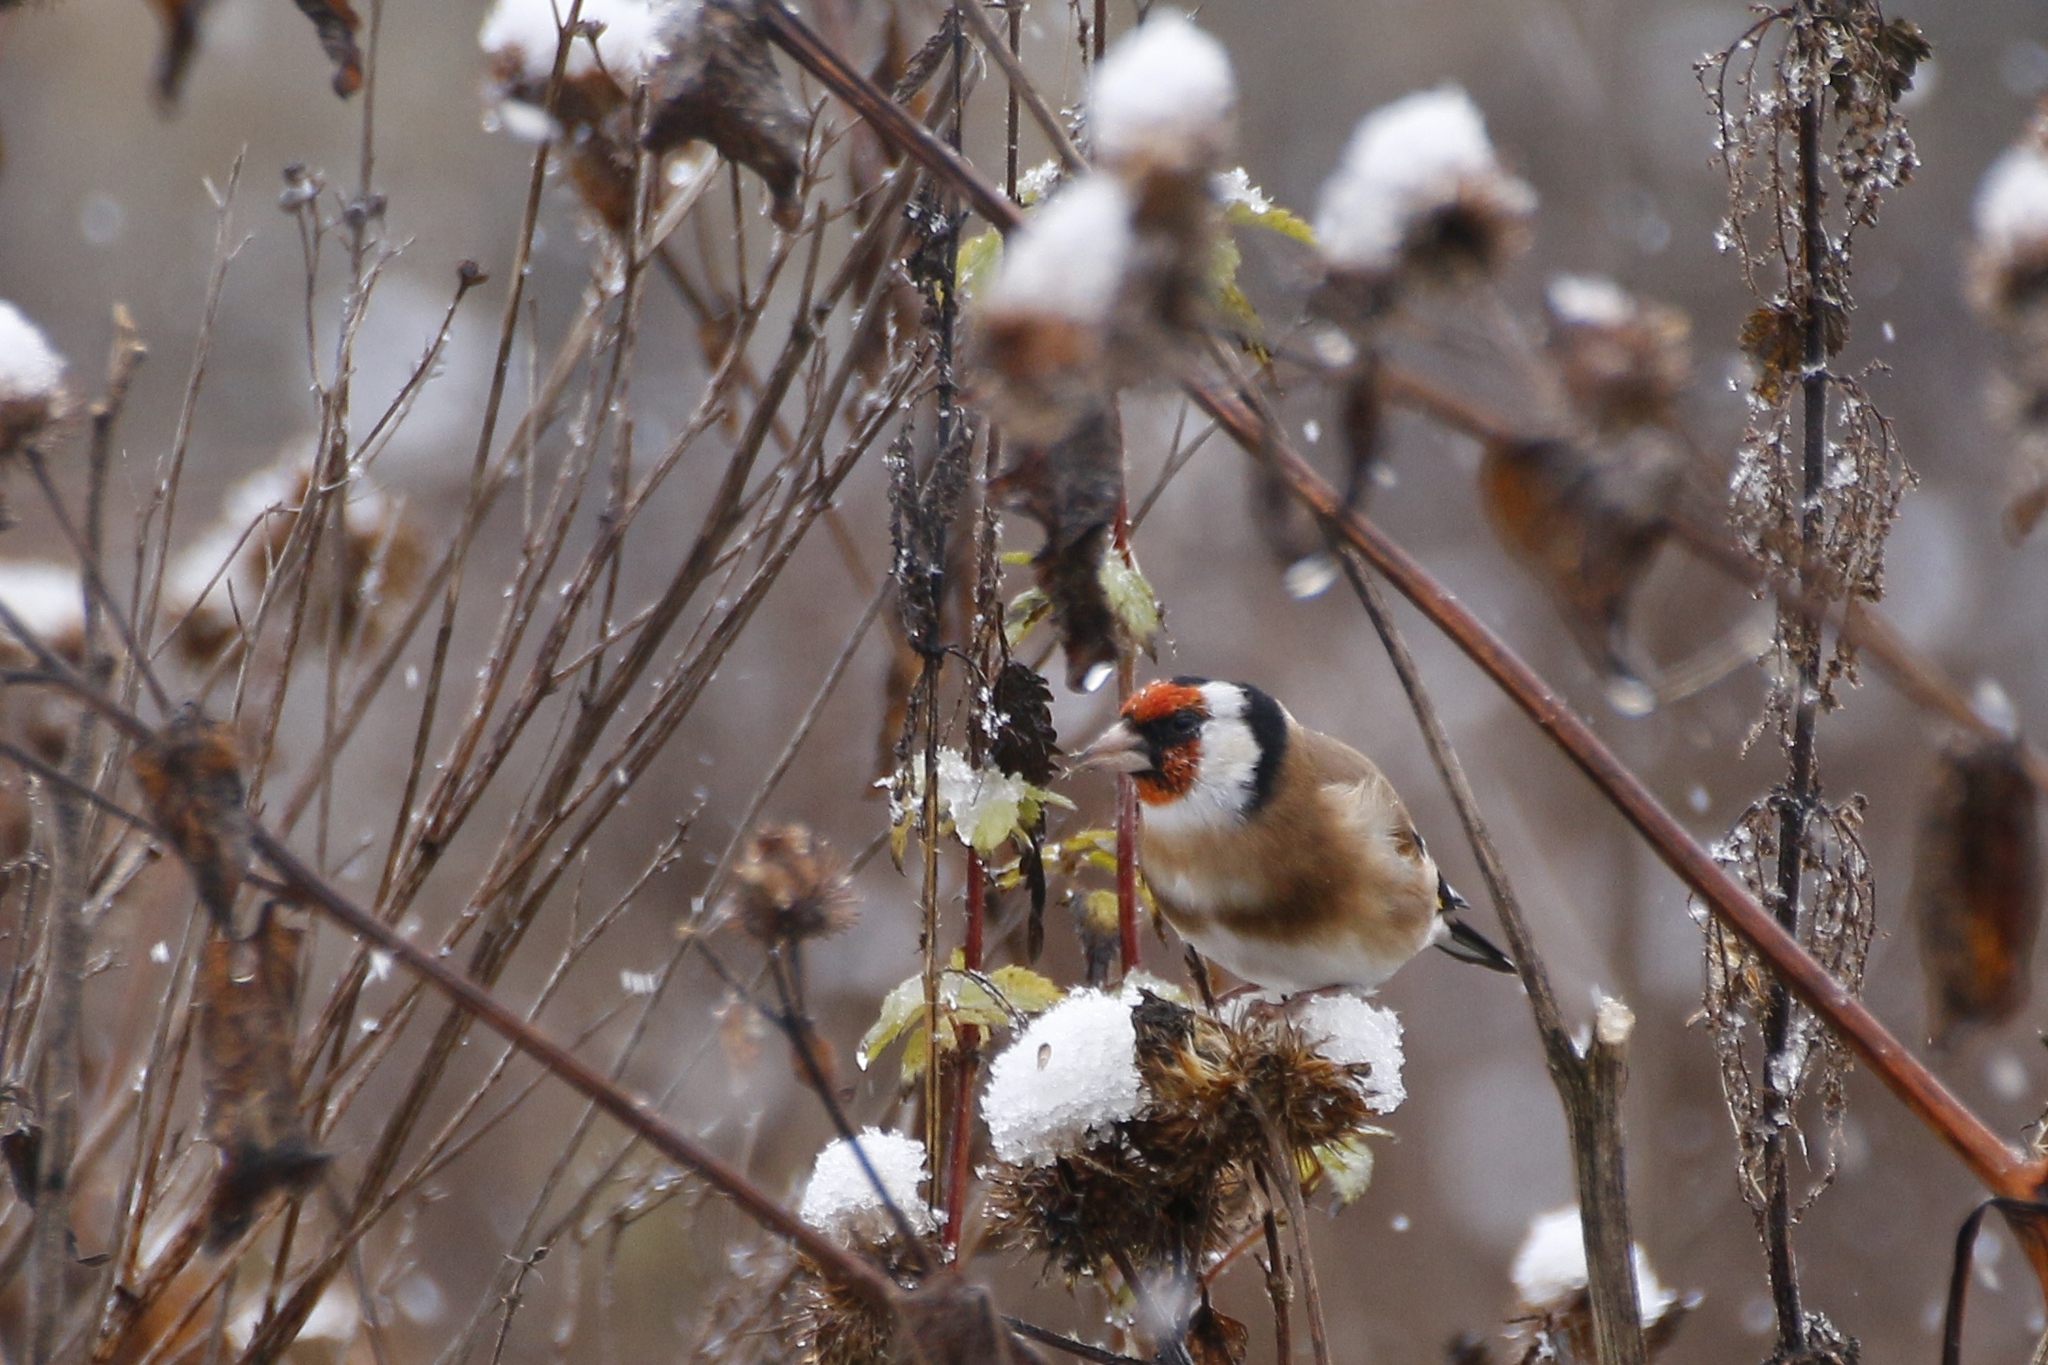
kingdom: Animalia
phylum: Chordata
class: Aves
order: Passeriformes
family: Fringillidae
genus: Carduelis
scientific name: Carduelis carduelis
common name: European goldfinch
